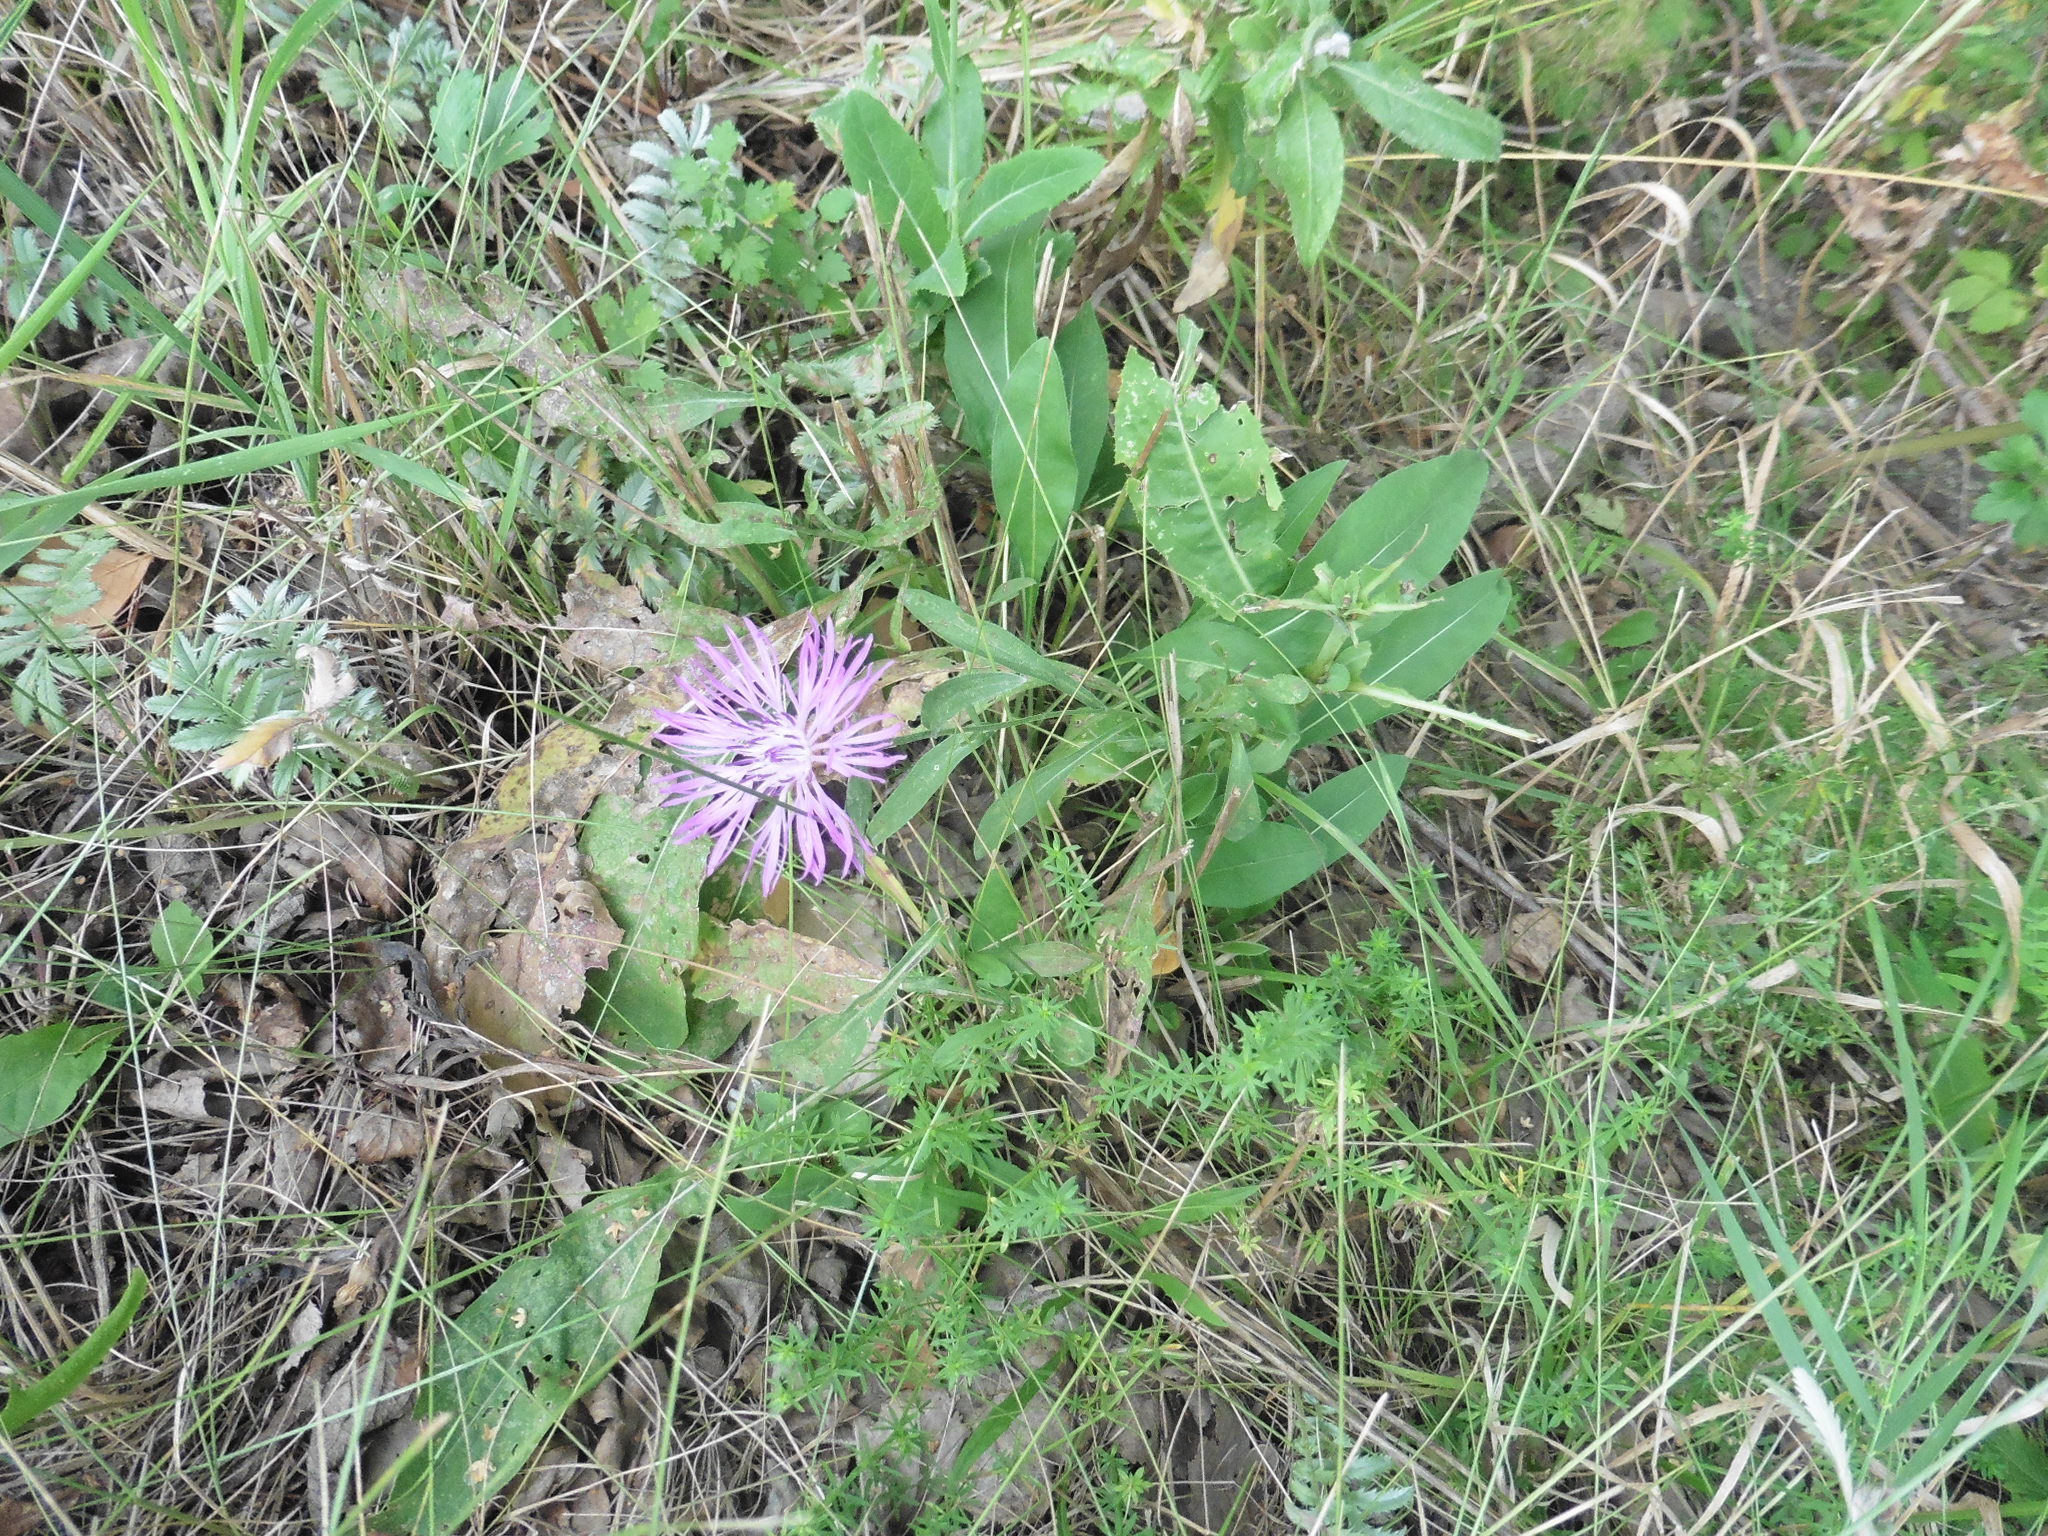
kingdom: Plantae
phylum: Tracheophyta
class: Magnoliopsida
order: Asterales
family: Asteraceae
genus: Centaurea
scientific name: Centaurea jacea
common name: Brown knapweed
